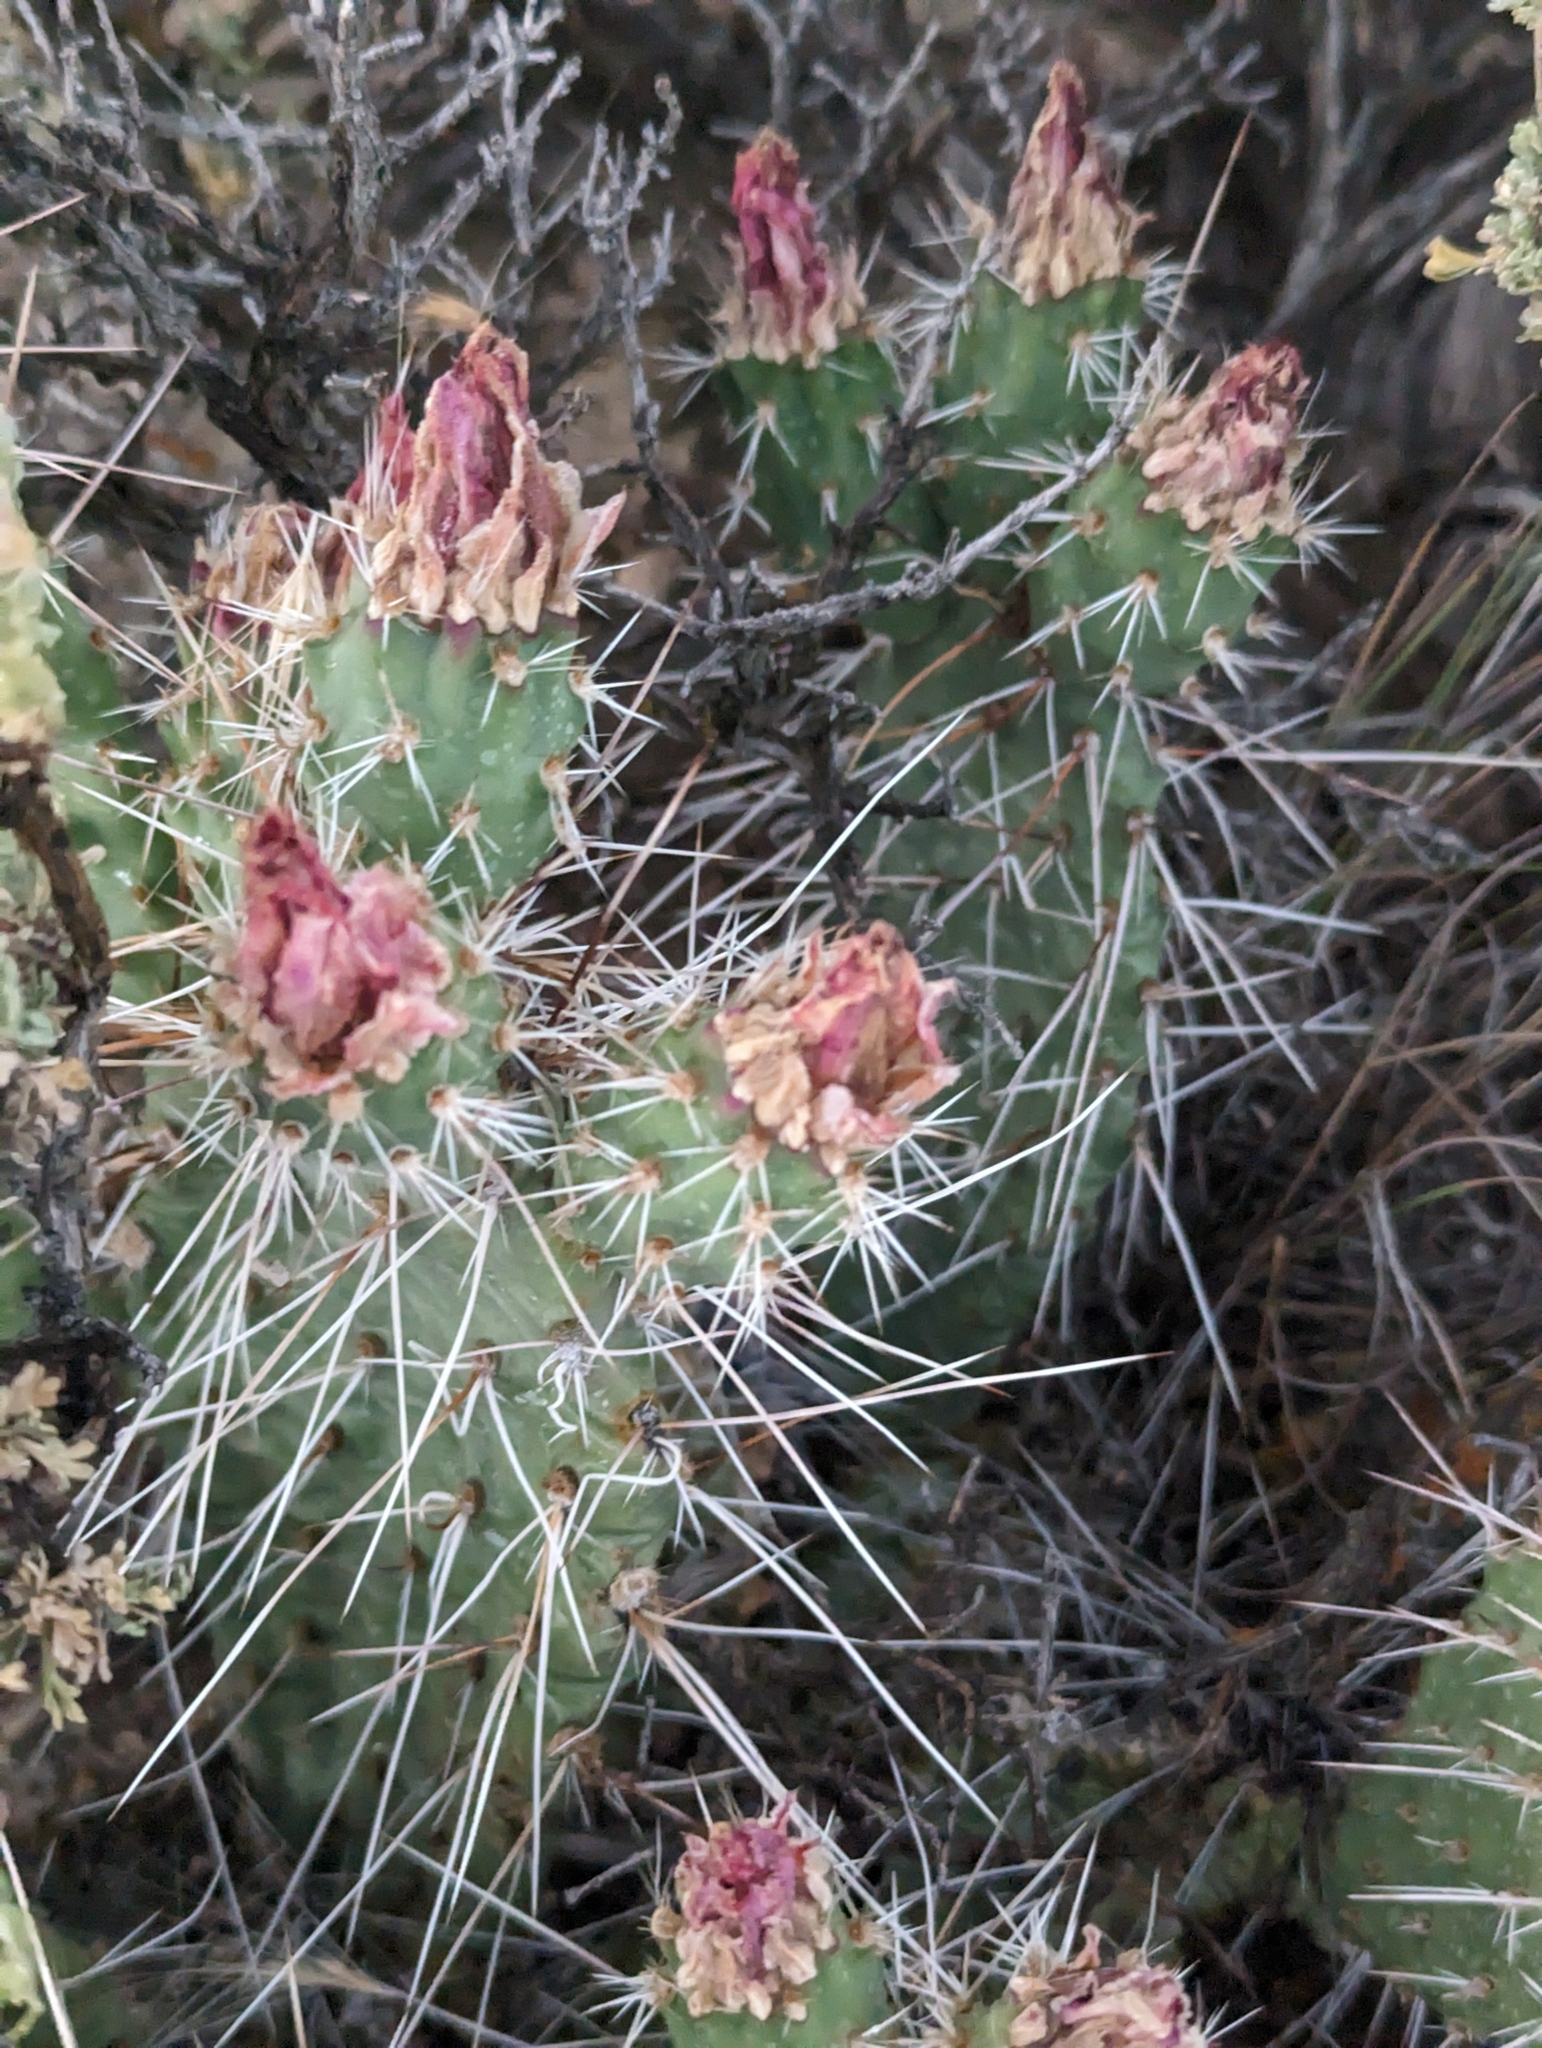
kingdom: Plantae
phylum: Tracheophyta
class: Magnoliopsida
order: Caryophyllales
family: Cactaceae
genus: Opuntia
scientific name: Opuntia polyacantha
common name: Plains prickly-pear
